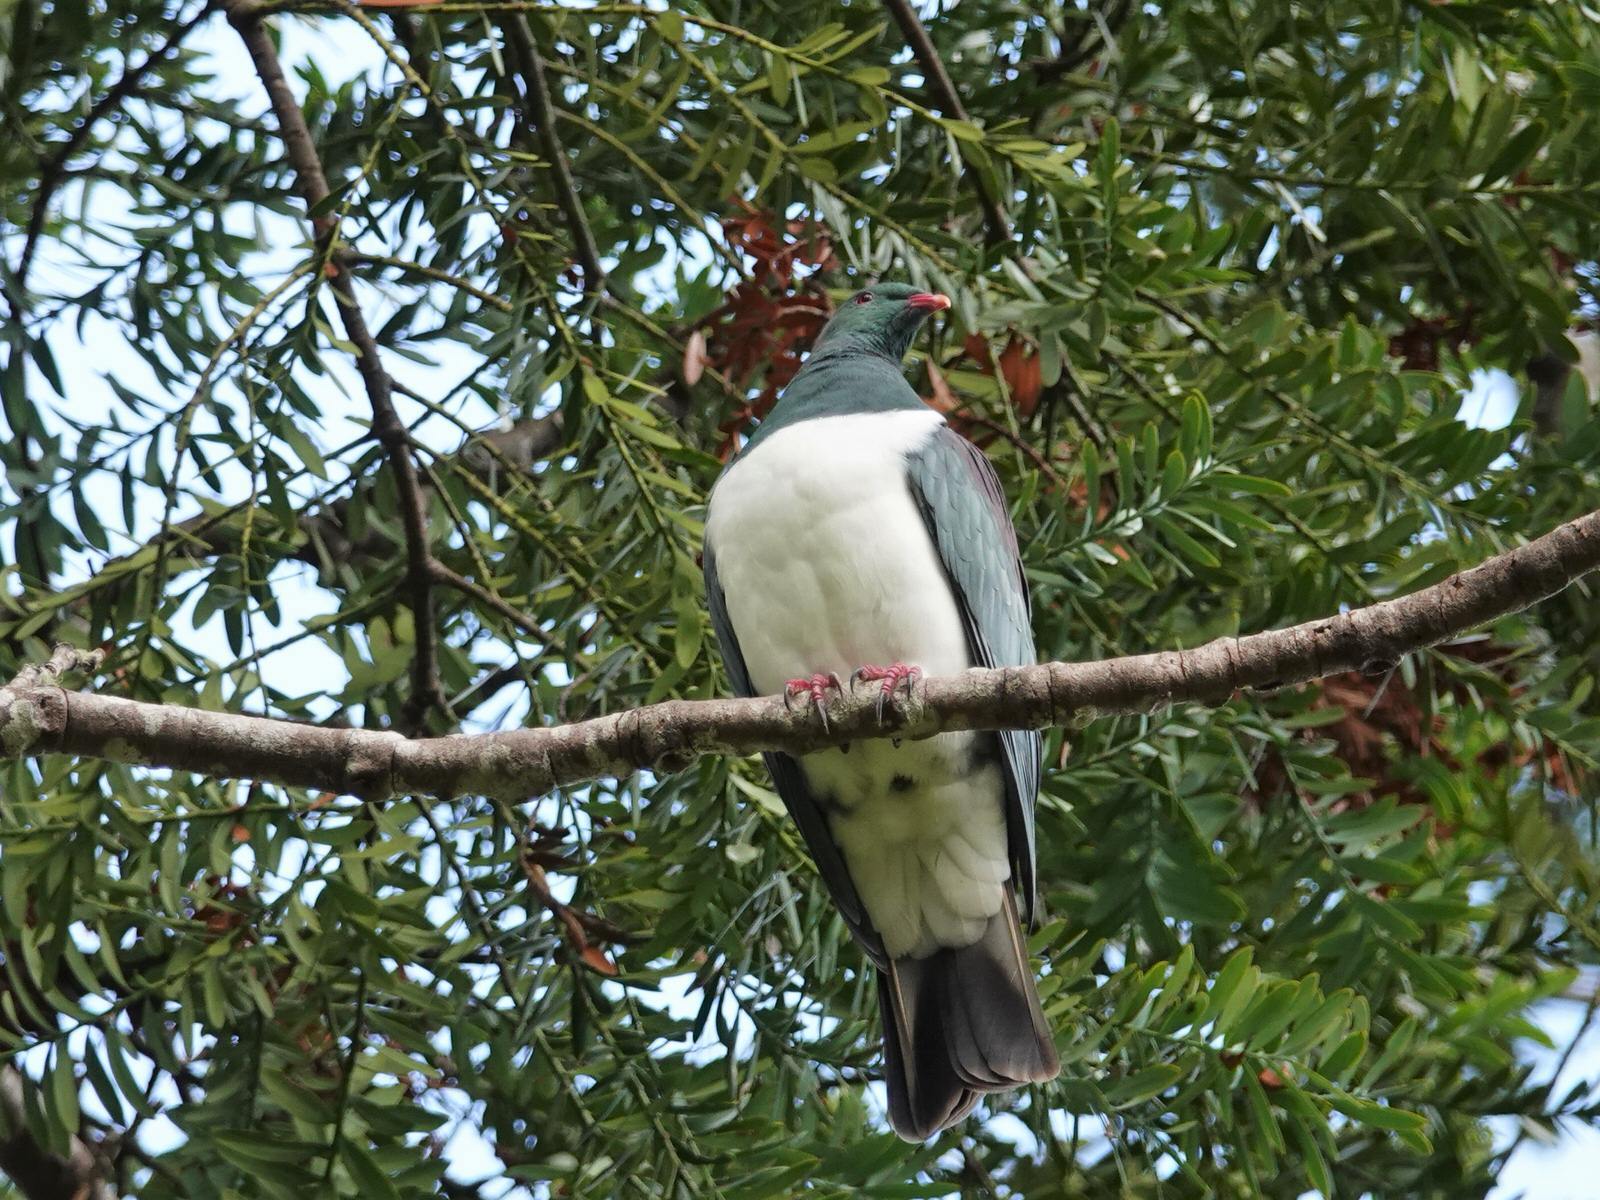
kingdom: Animalia
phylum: Chordata
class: Aves
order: Columbiformes
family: Columbidae
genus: Hemiphaga
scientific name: Hemiphaga novaeseelandiae
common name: New zealand pigeon
